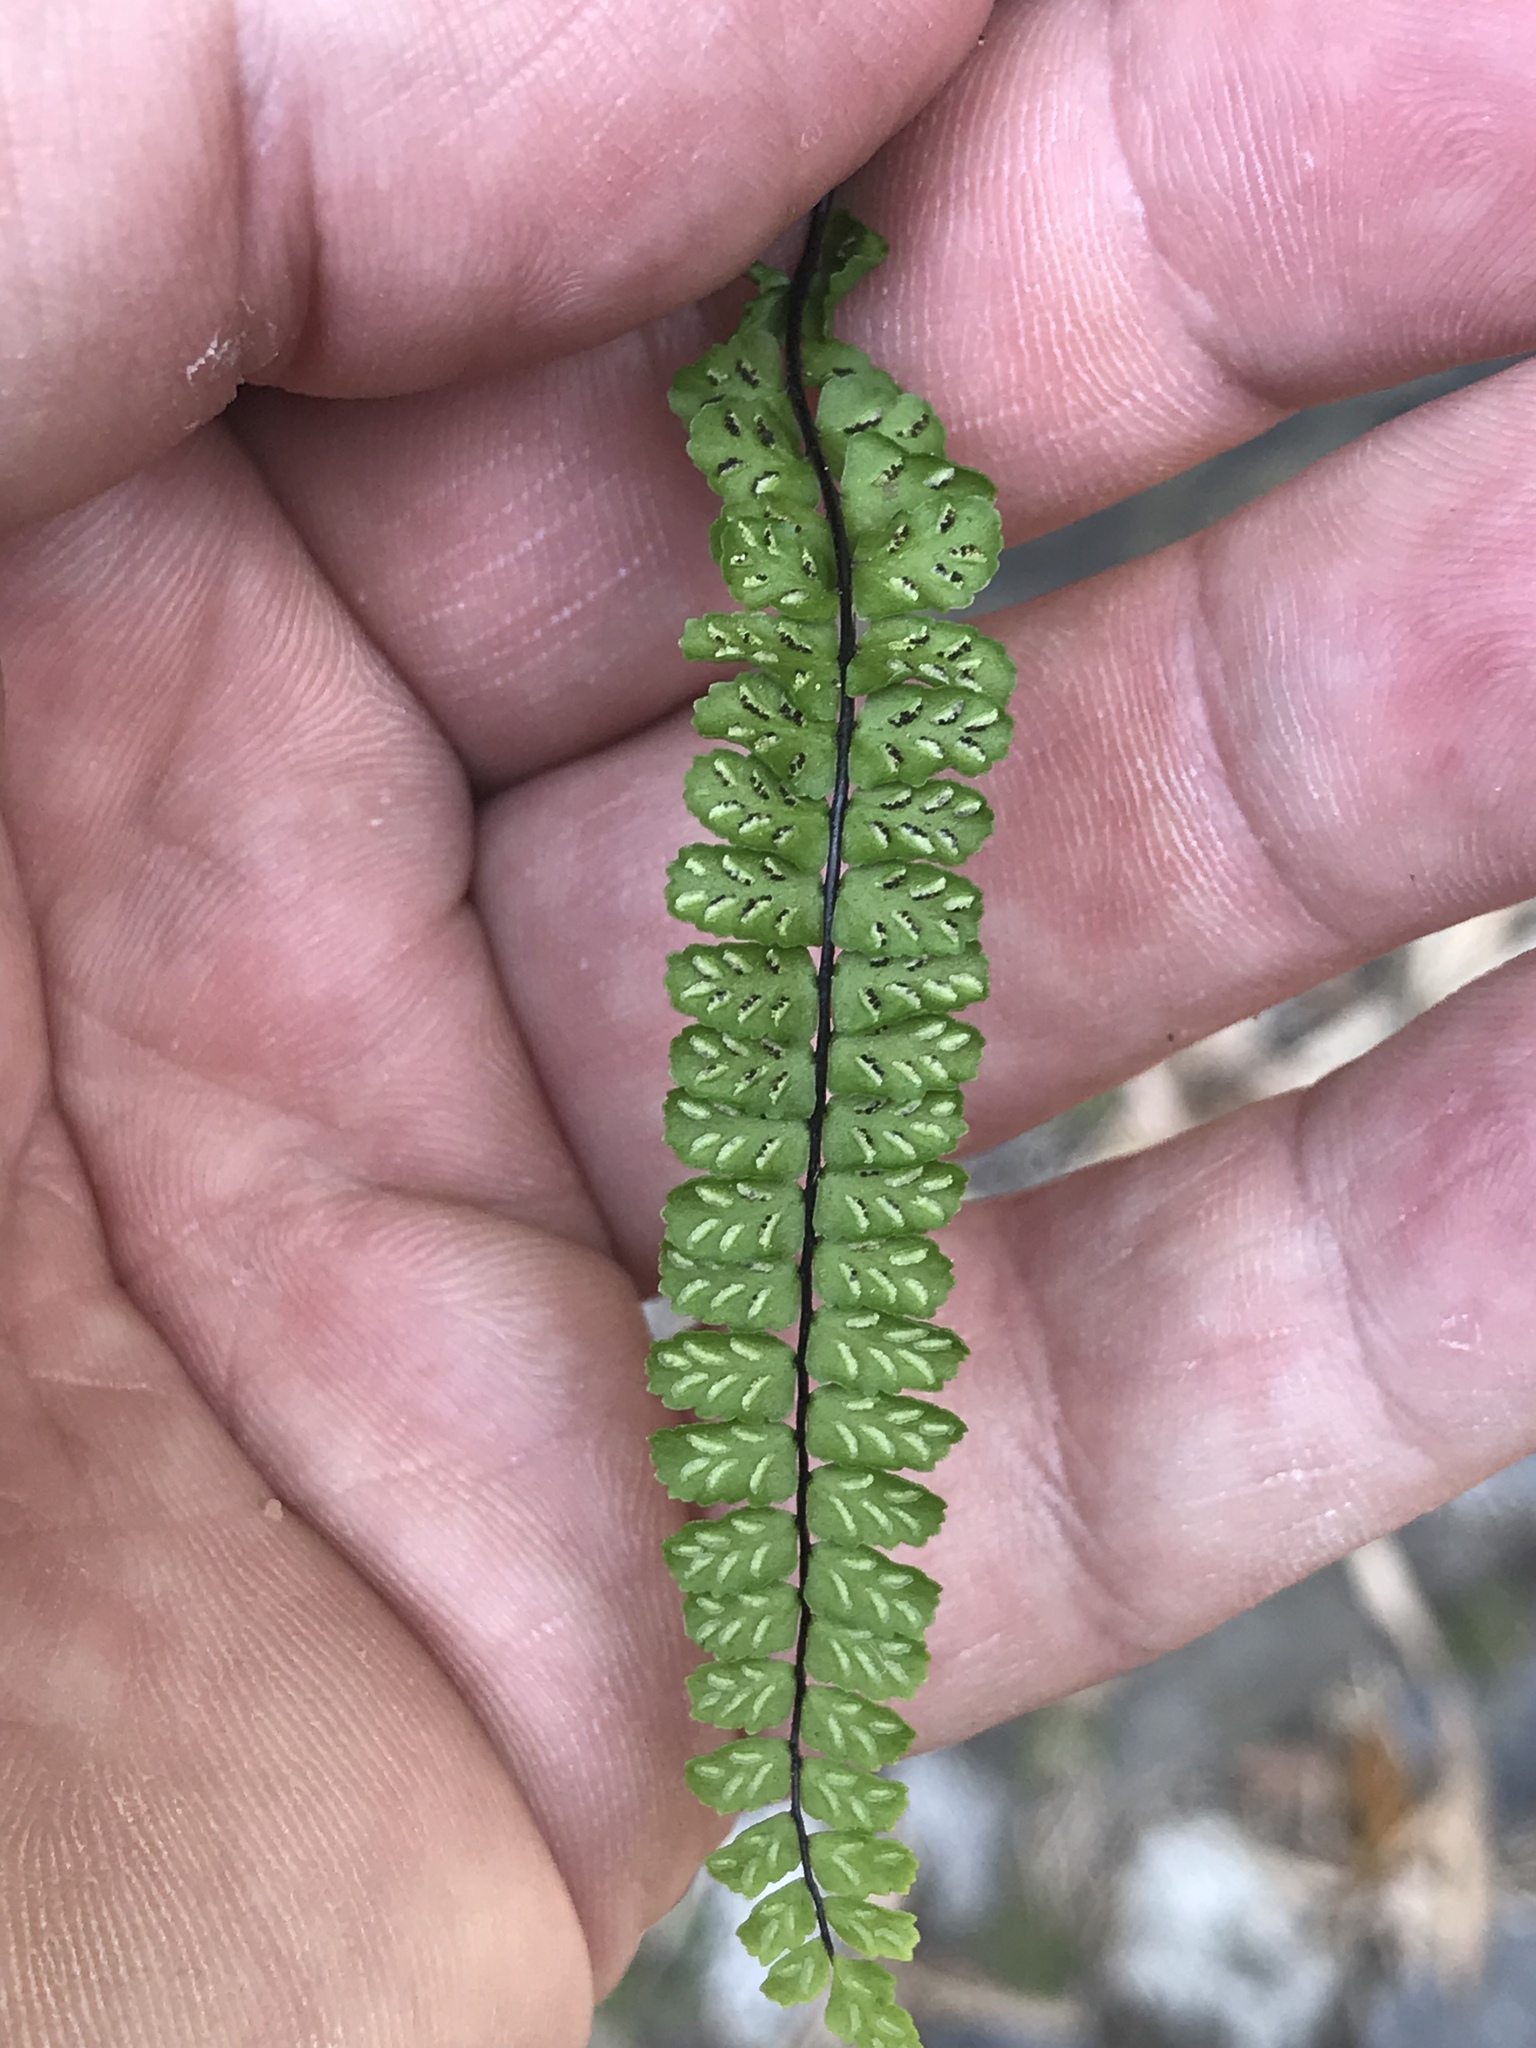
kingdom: Plantae
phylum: Tracheophyta
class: Polypodiopsida
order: Polypodiales
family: Aspleniaceae
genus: Asplenium
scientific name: Asplenium trichomanes
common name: Maidenhair spleenwort
